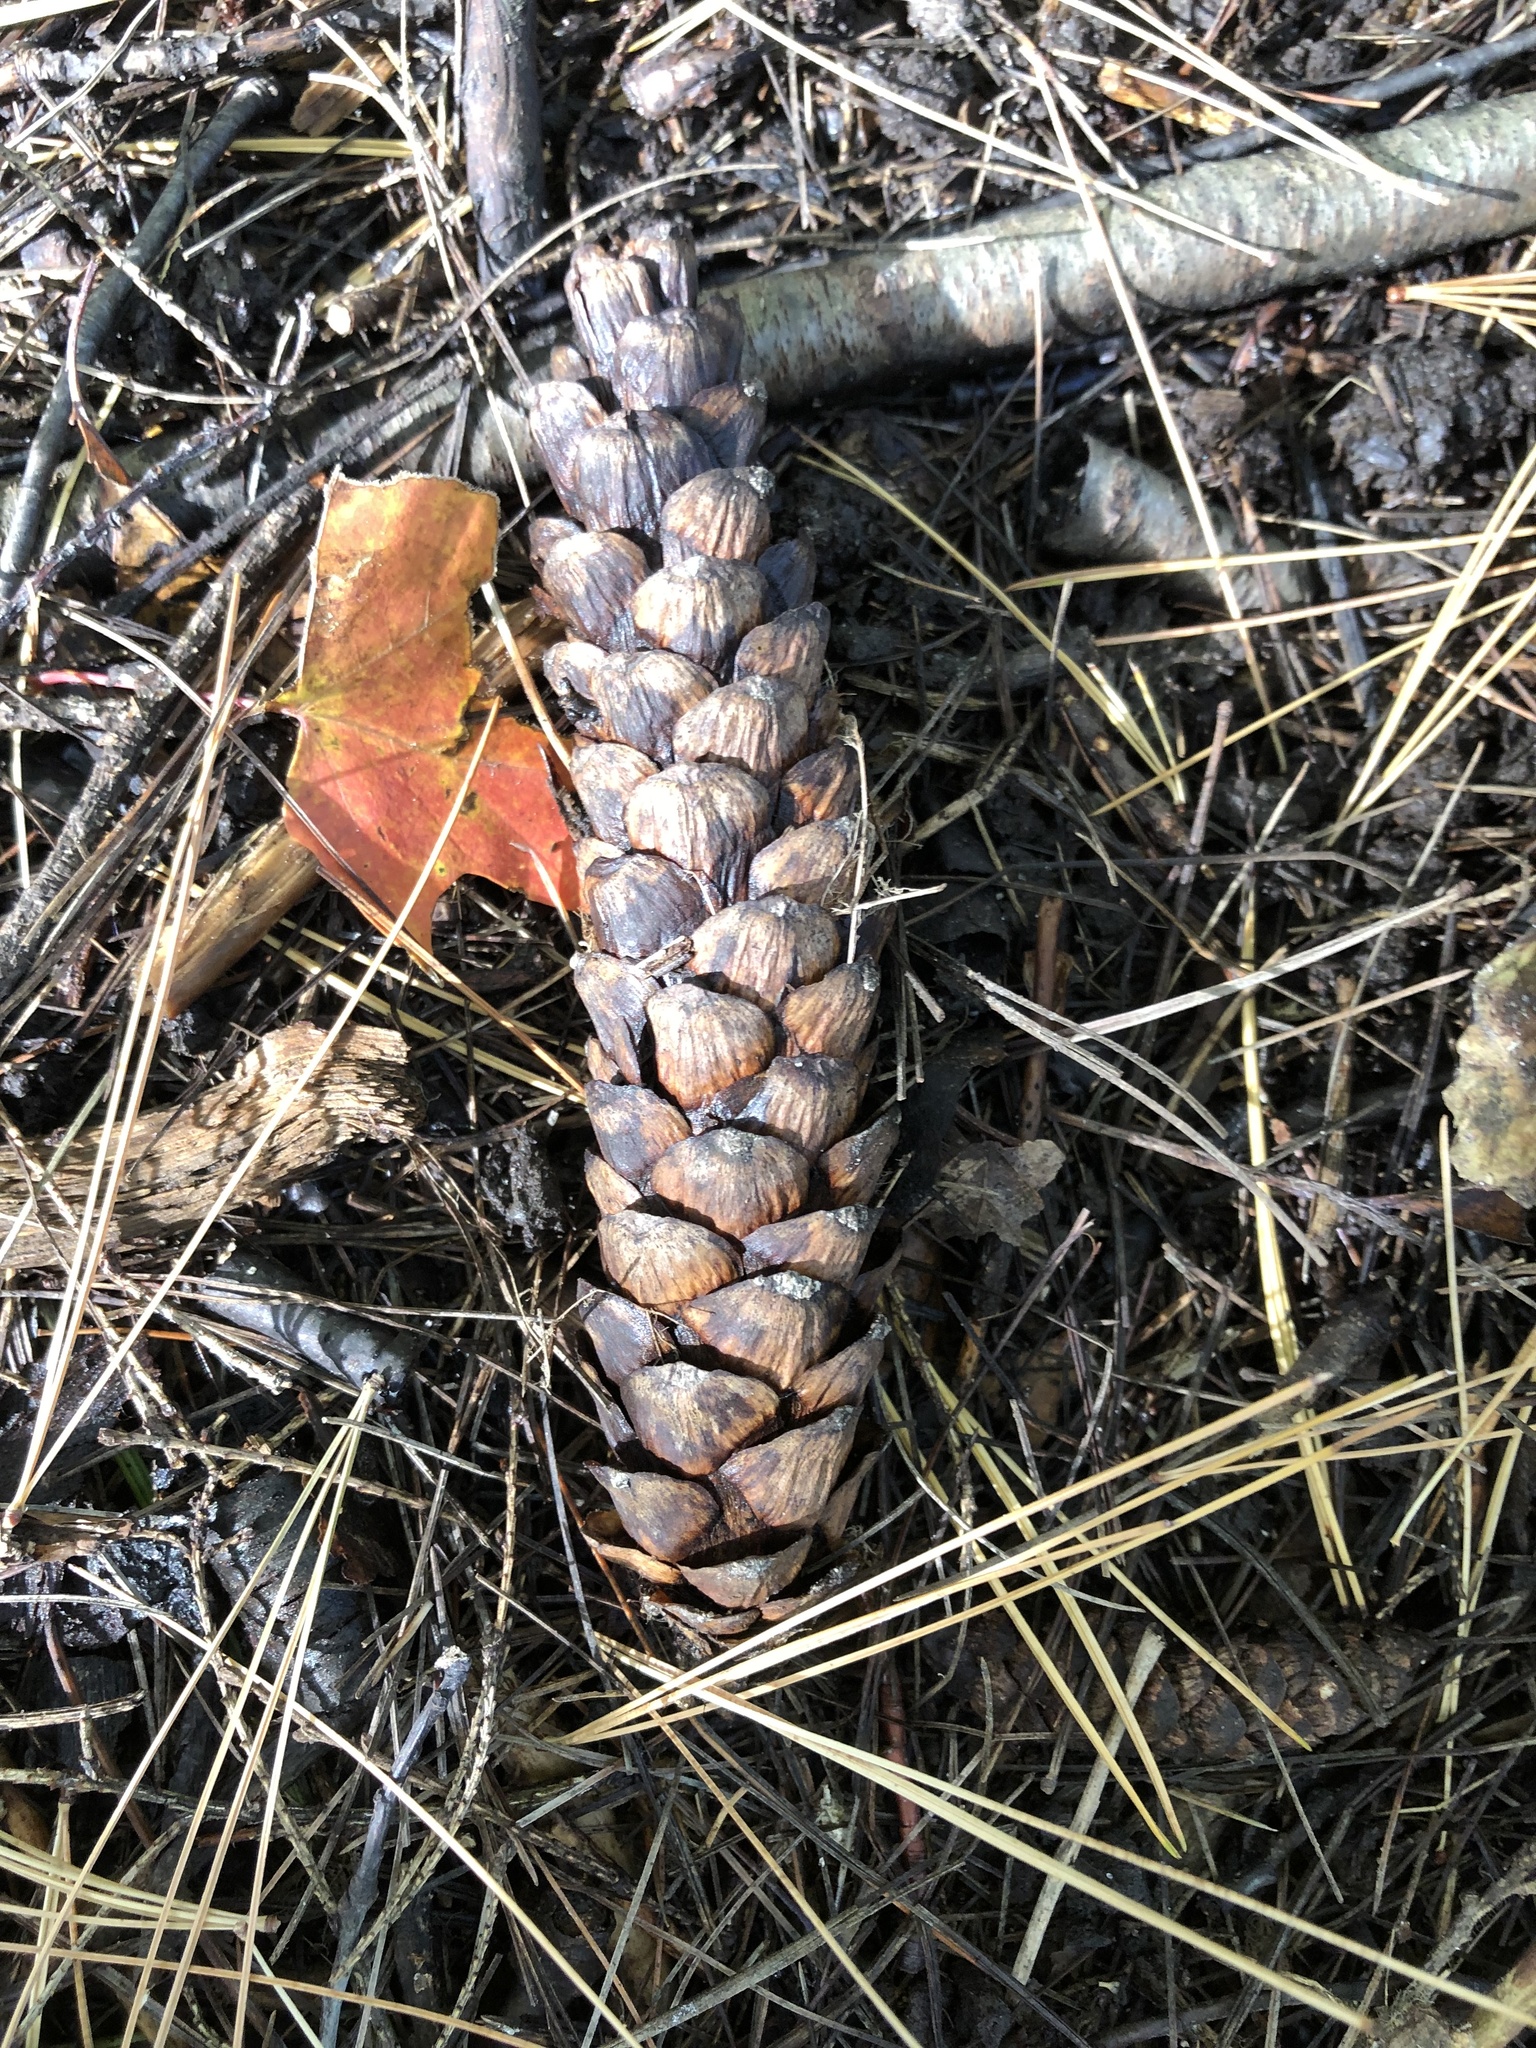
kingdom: Plantae
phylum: Tracheophyta
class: Pinopsida
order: Pinales
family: Pinaceae
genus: Pinus
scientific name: Pinus strobus
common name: Weymouth pine
